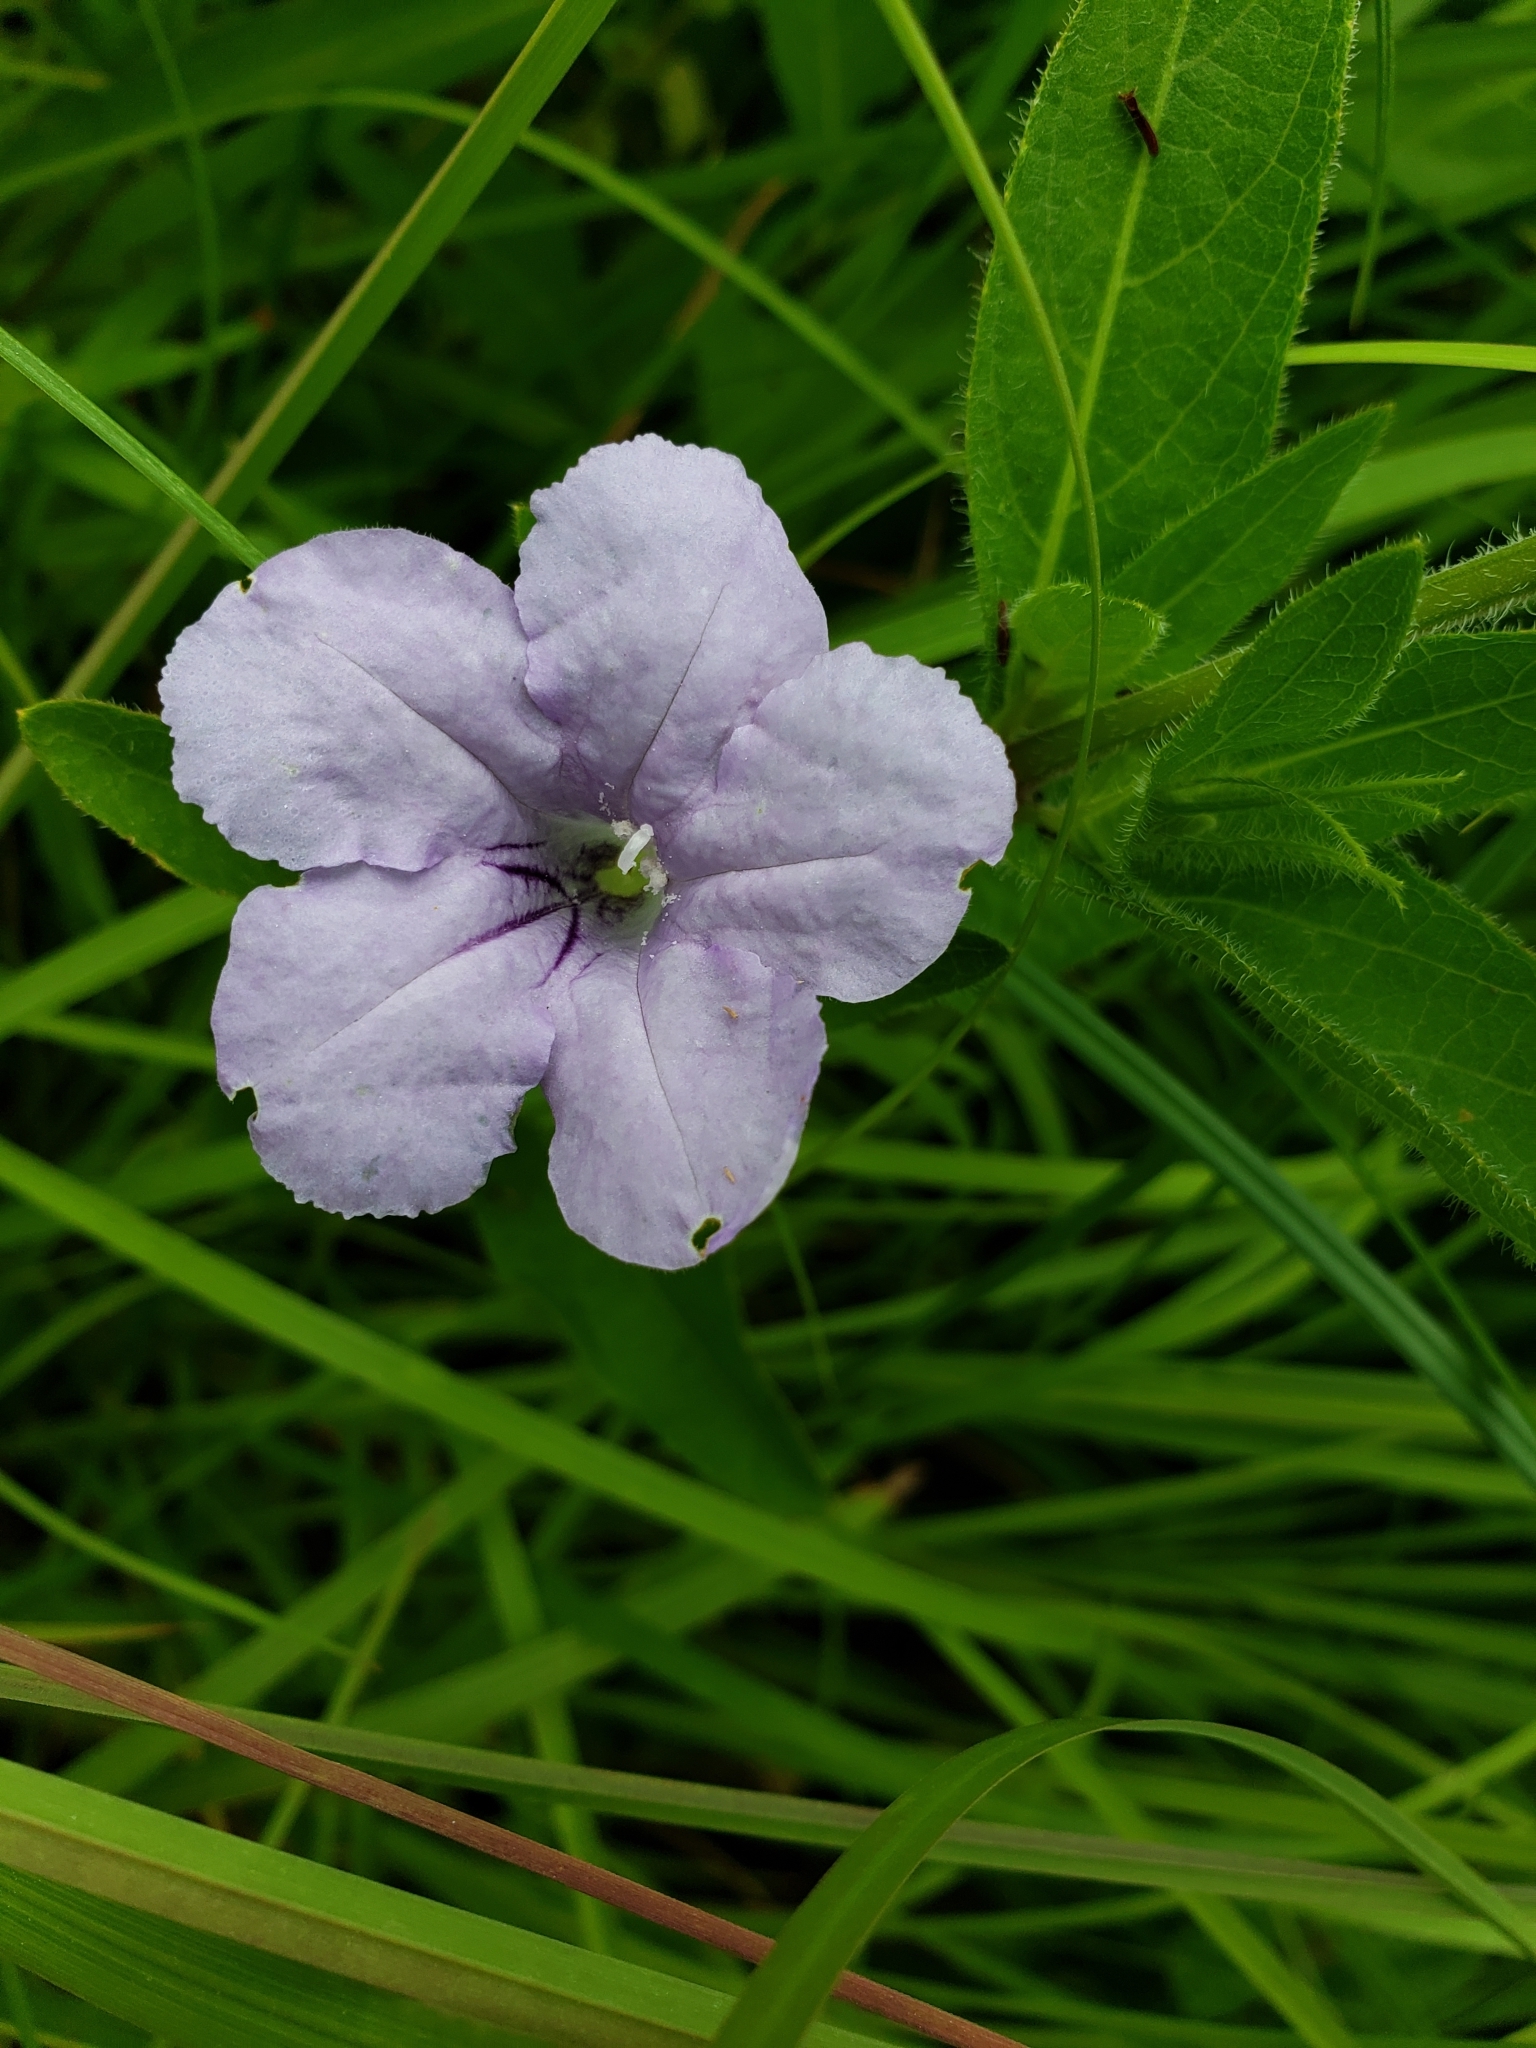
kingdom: Plantae
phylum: Tracheophyta
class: Magnoliopsida
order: Lamiales
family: Acanthaceae
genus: Ruellia
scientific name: Ruellia humilis
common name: Fringe-leaf ruellia
